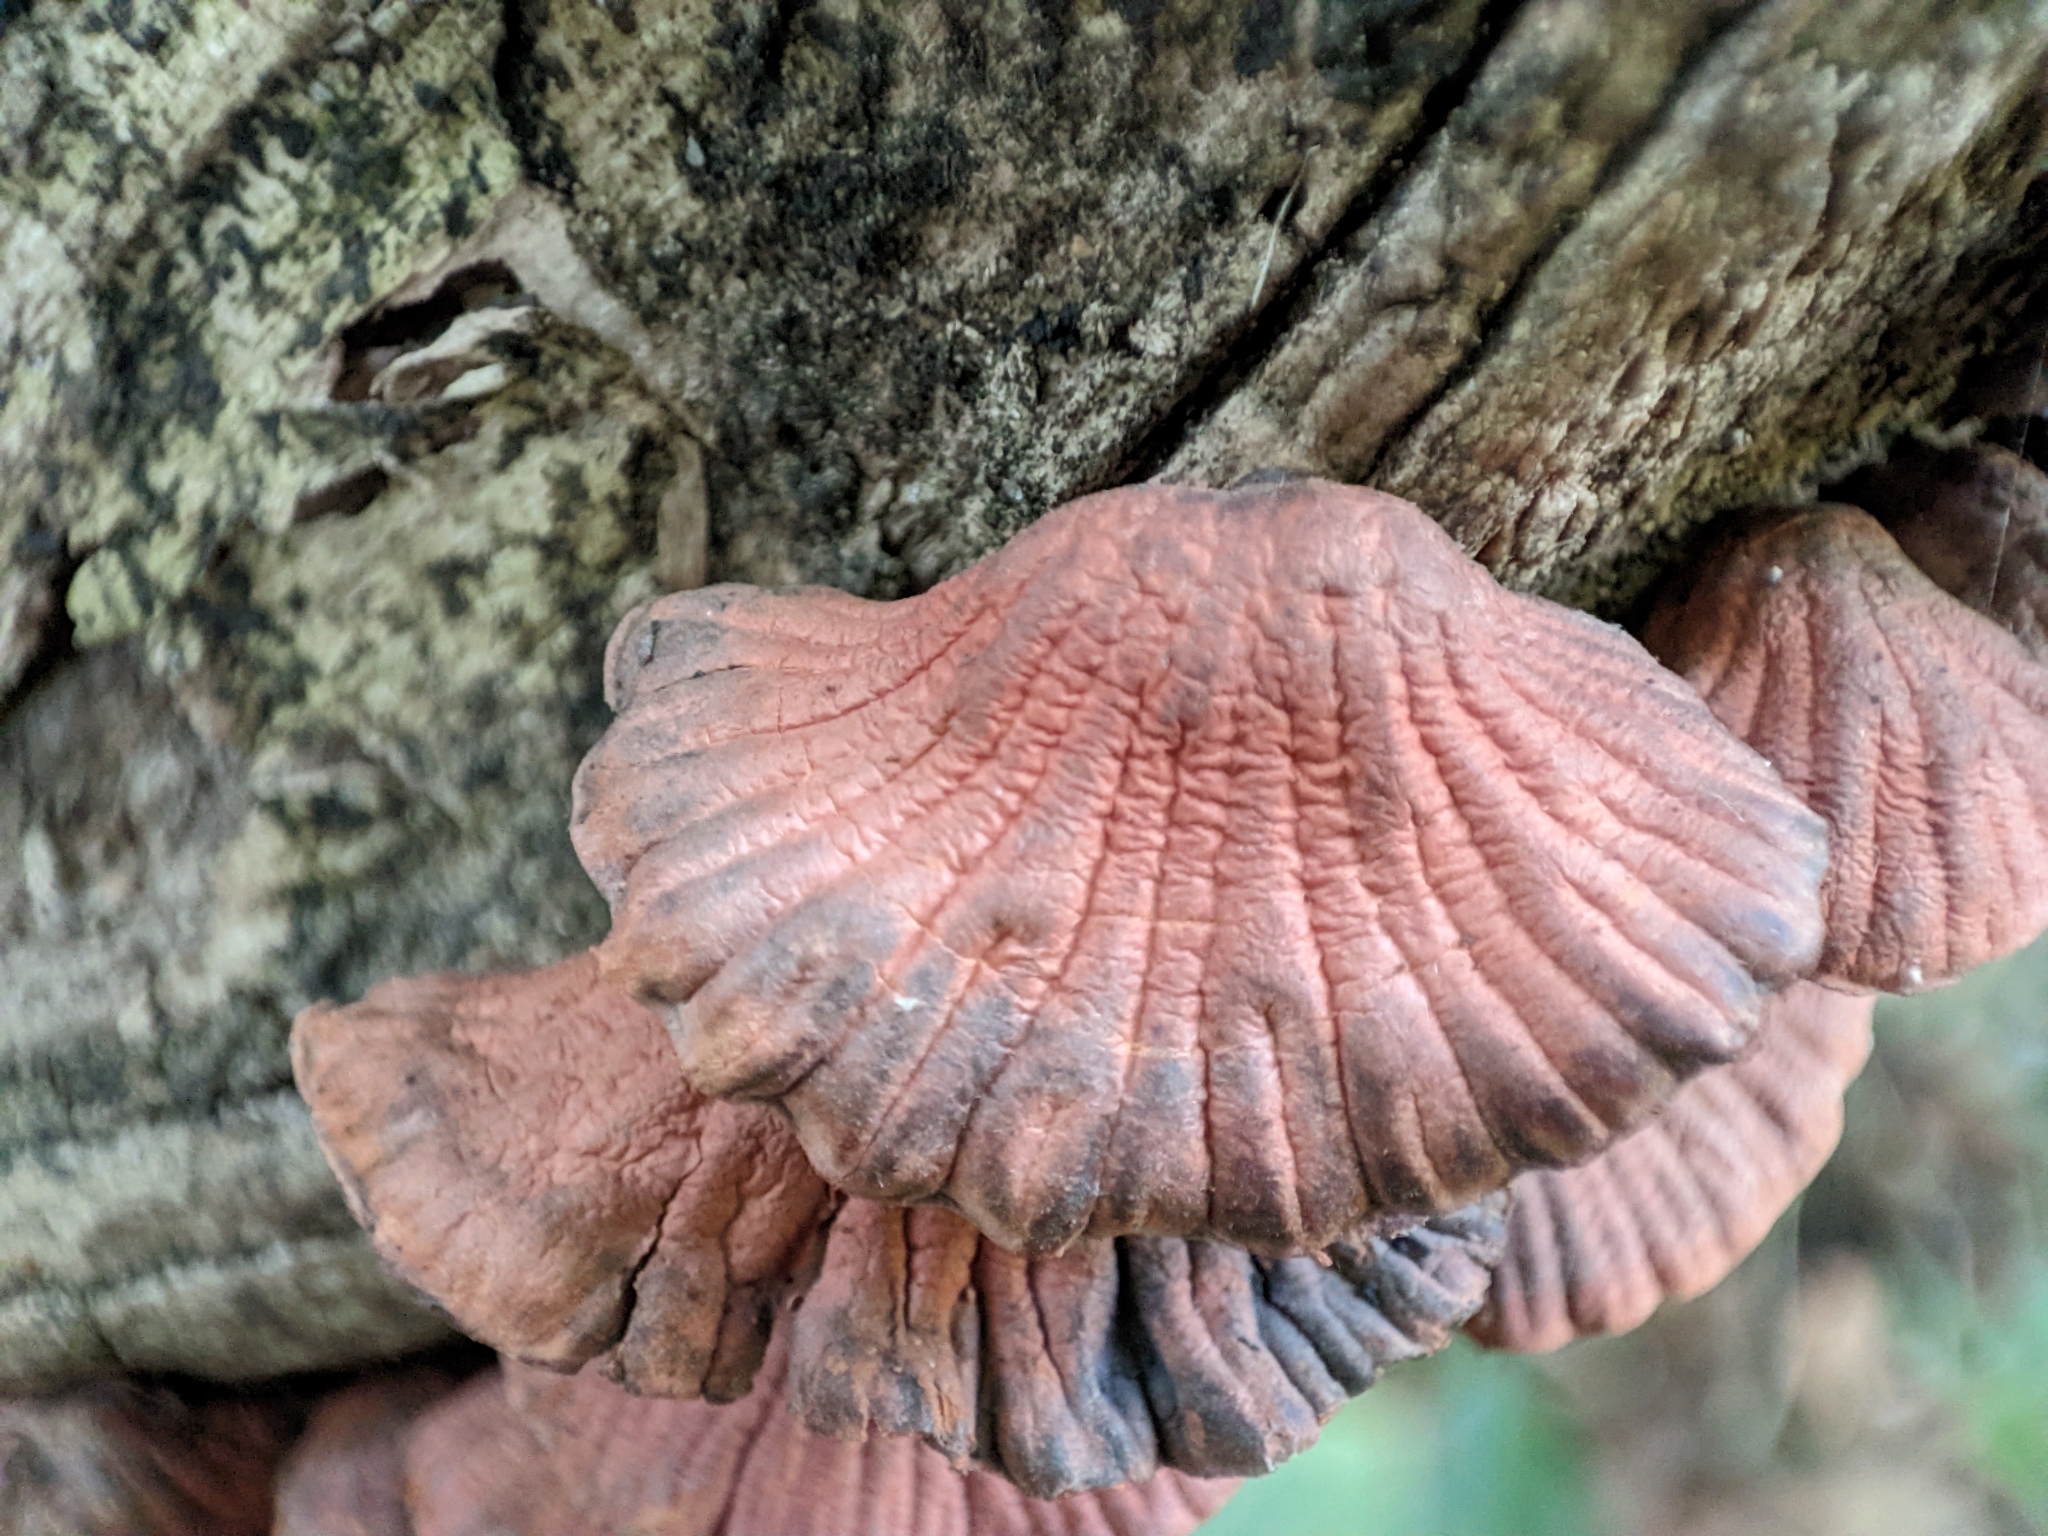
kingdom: Fungi
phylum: Basidiomycota
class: Agaricomycetes
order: Agaricales
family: Omphalotaceae
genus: Anthracophyllum
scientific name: Anthracophyllum nigritum
